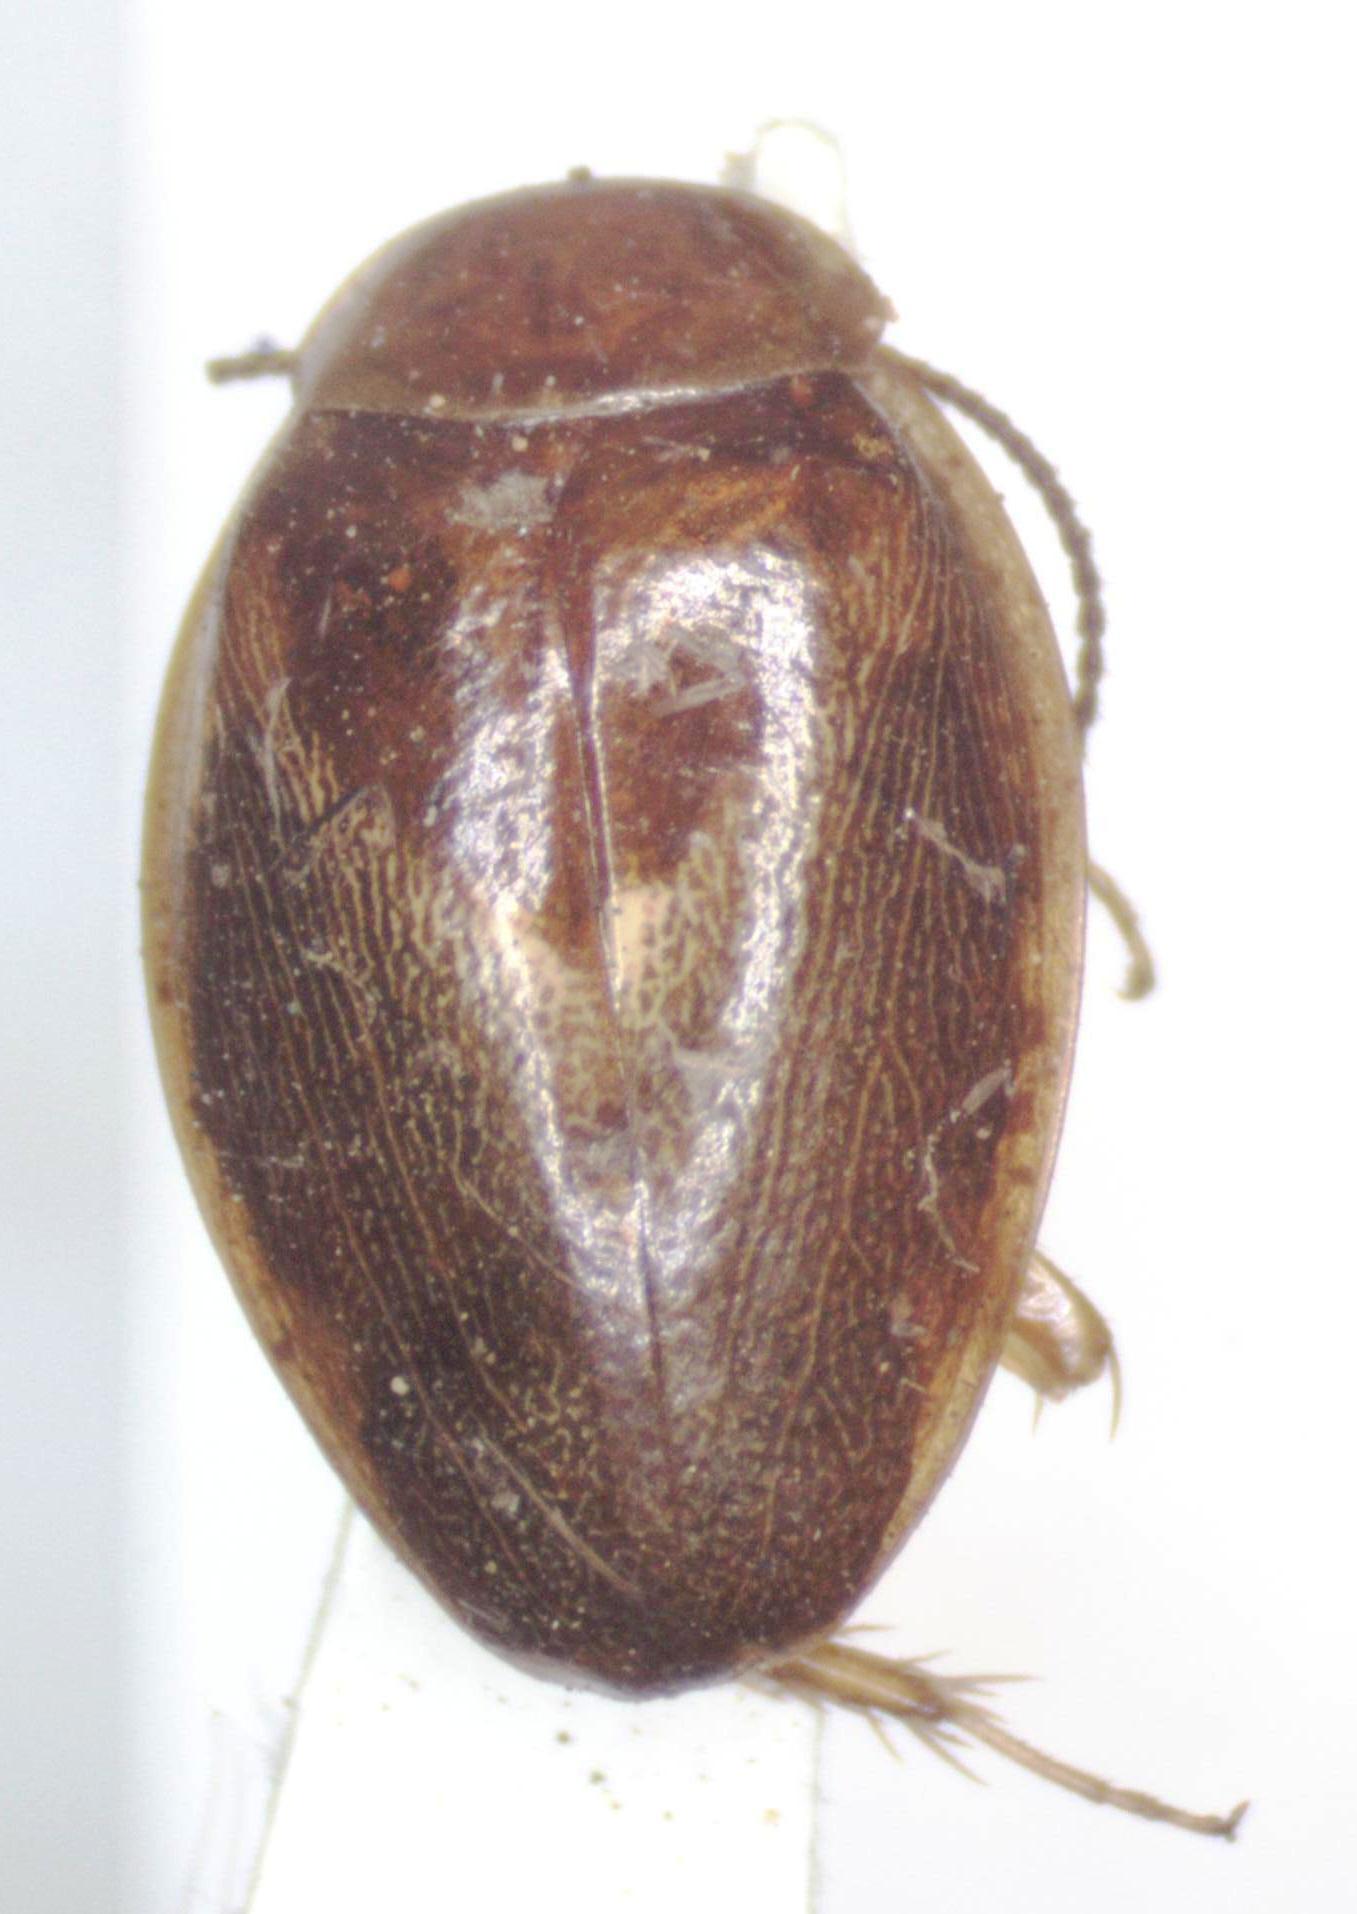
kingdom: Animalia
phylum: Arthropoda
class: Insecta
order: Blattodea
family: Ectobiidae
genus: Plectoptera
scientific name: Plectoptera pulicaria
